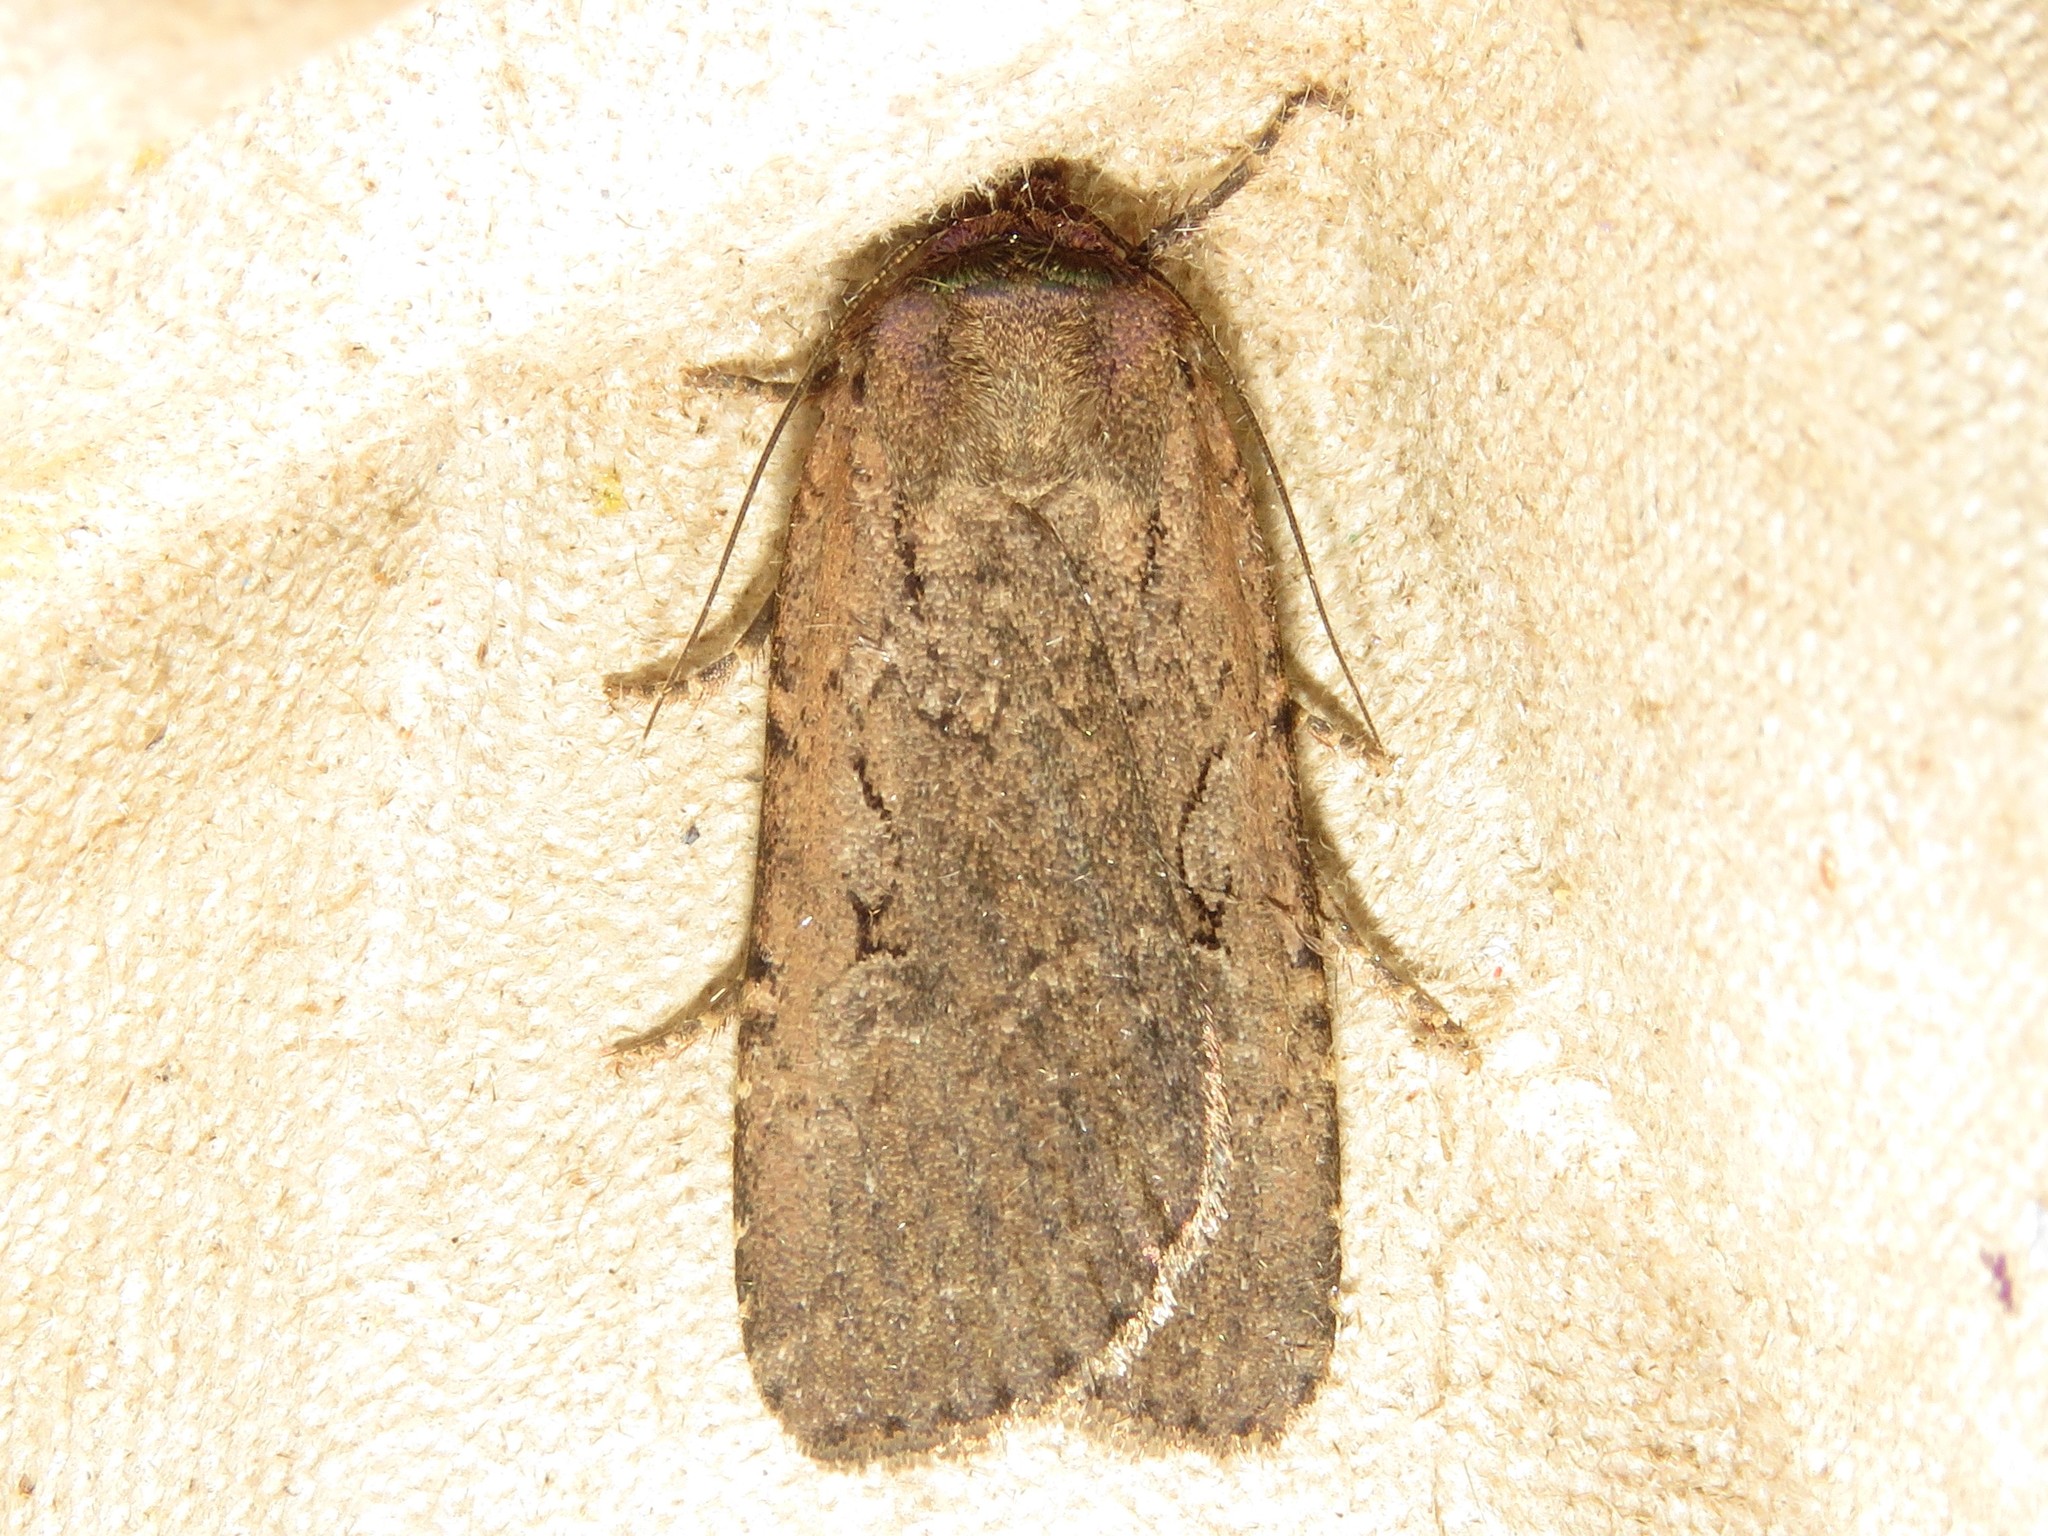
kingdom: Animalia
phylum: Arthropoda
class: Insecta
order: Lepidoptera
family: Noctuidae
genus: Spaelotis
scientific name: Spaelotis clandestina
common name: Clandestine dart
